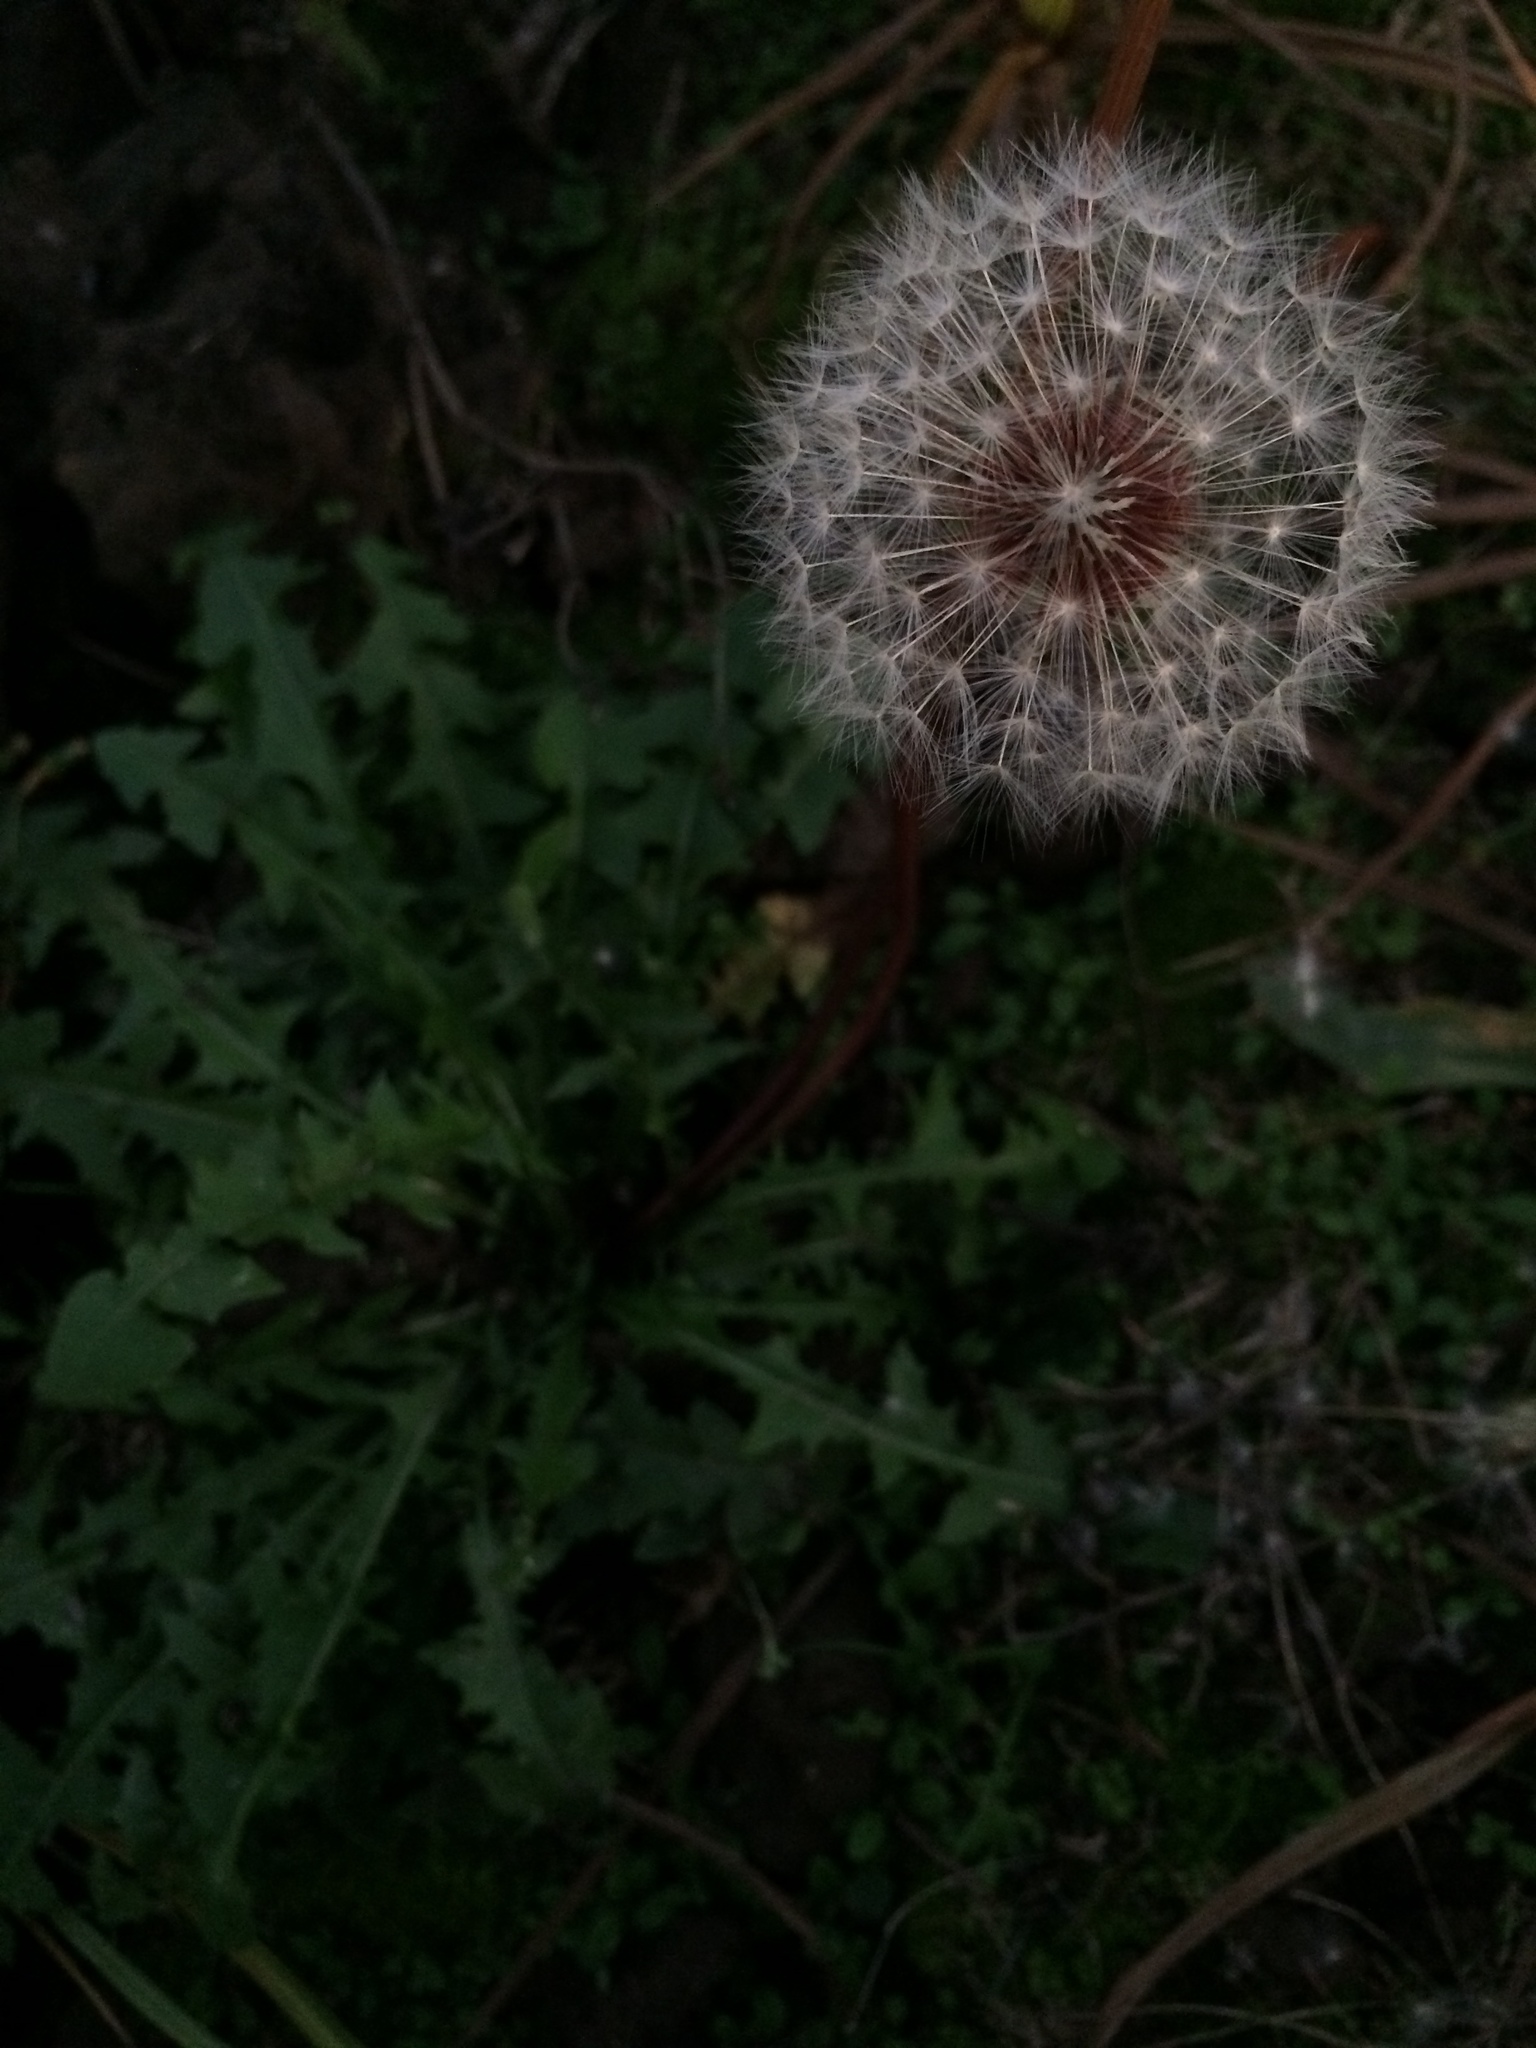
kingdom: Plantae
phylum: Tracheophyta
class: Magnoliopsida
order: Asterales
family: Asteraceae
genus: Taraxacum
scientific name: Taraxacum erythrospermum
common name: Rock dandelion
